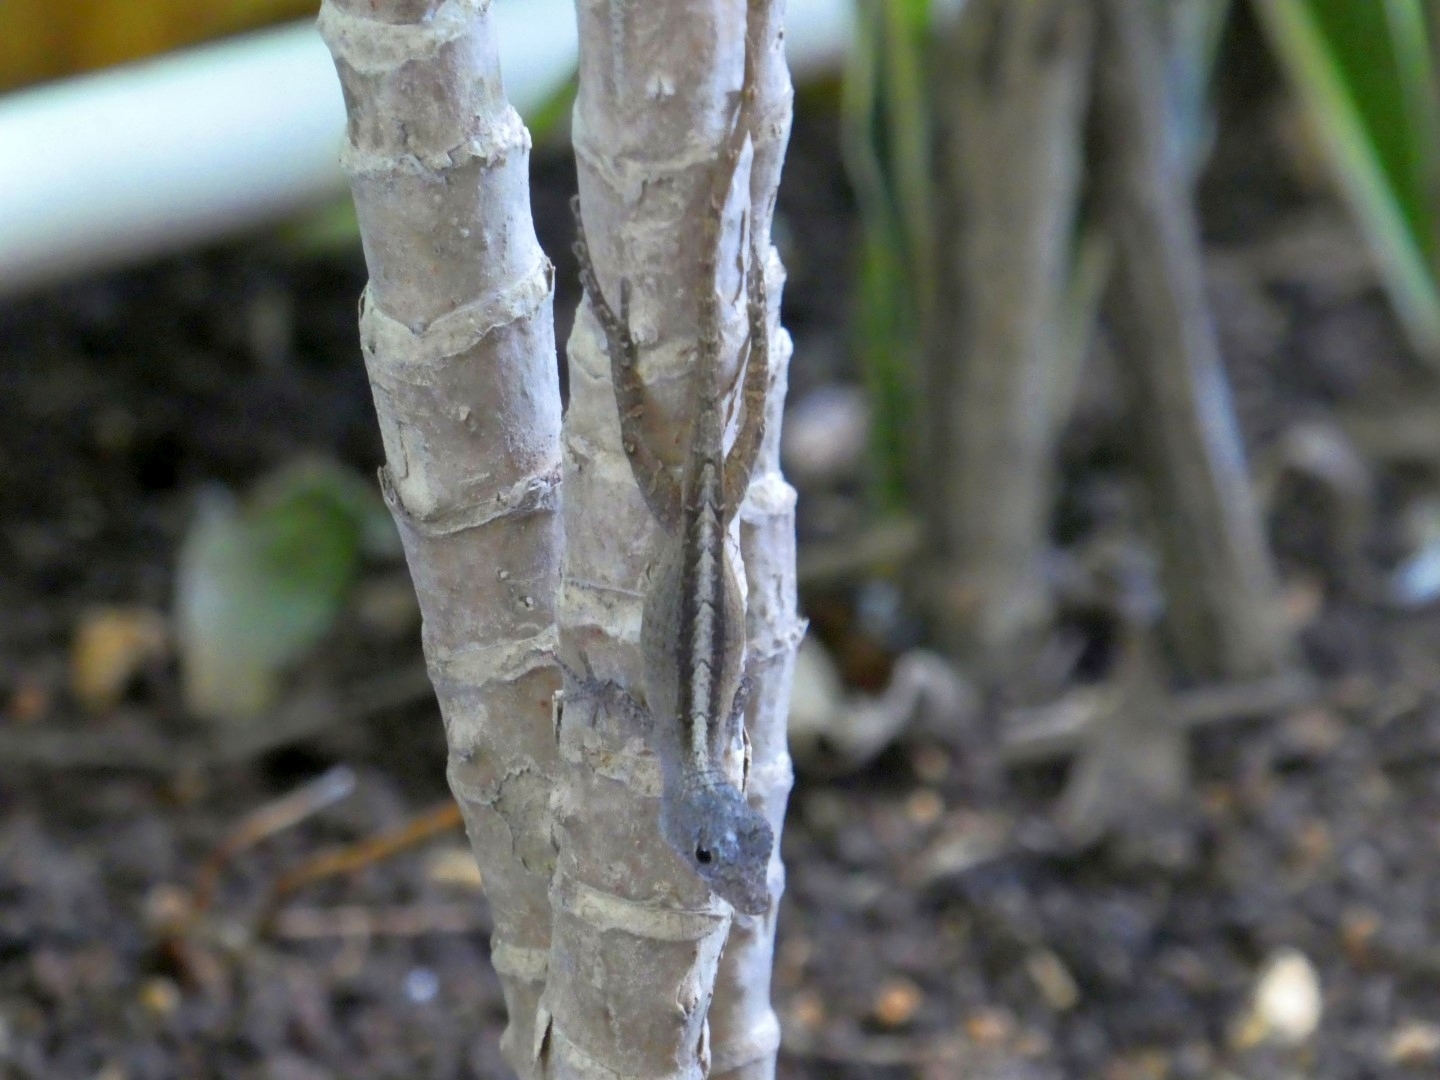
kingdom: Animalia
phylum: Chordata
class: Squamata
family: Dactyloidae
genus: Anolis
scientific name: Anolis sagrei
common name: Brown anole
